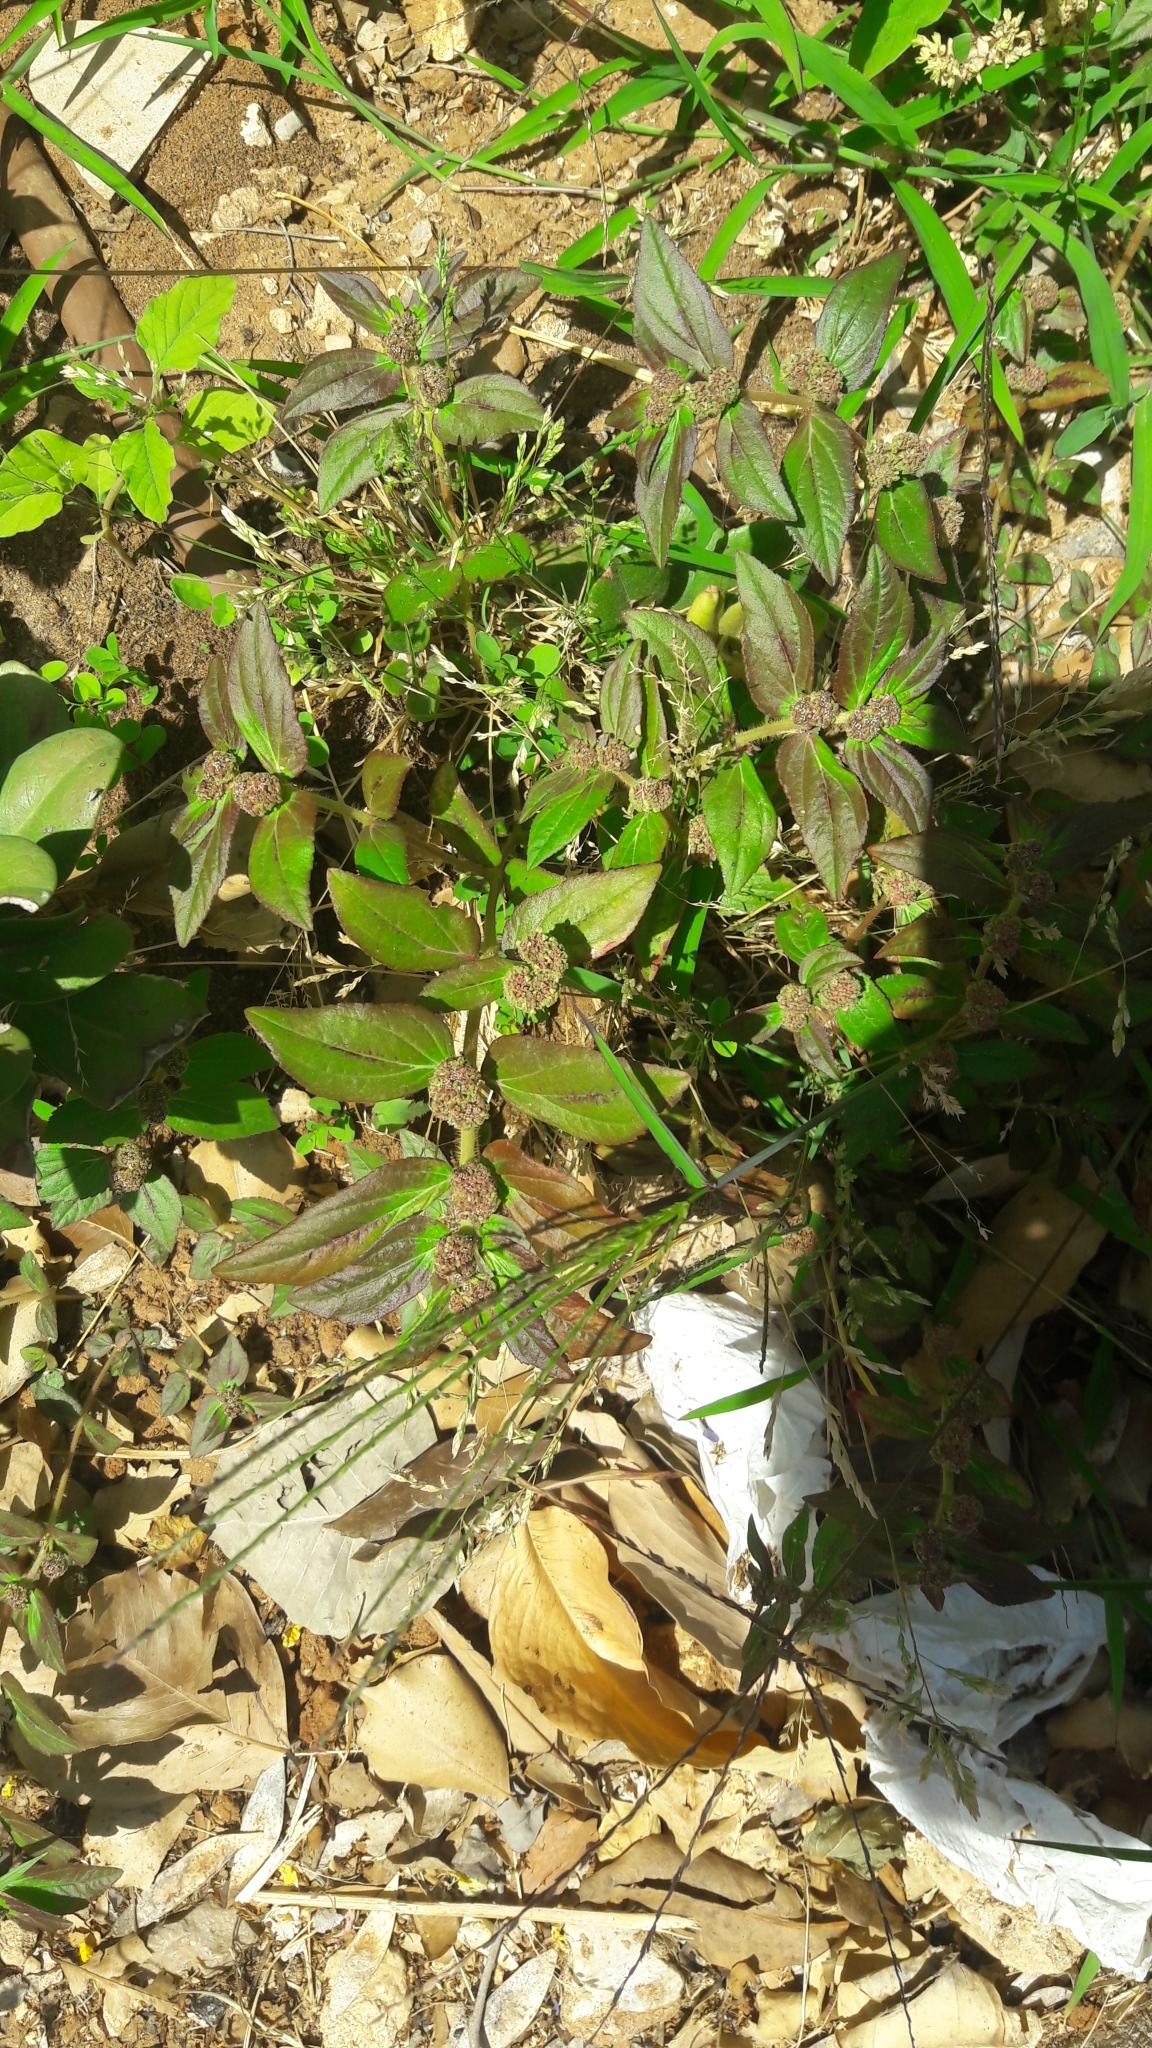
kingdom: Plantae
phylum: Tracheophyta
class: Magnoliopsida
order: Malpighiales
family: Euphorbiaceae
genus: Euphorbia
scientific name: Euphorbia hirta
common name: Pillpod sandmat
